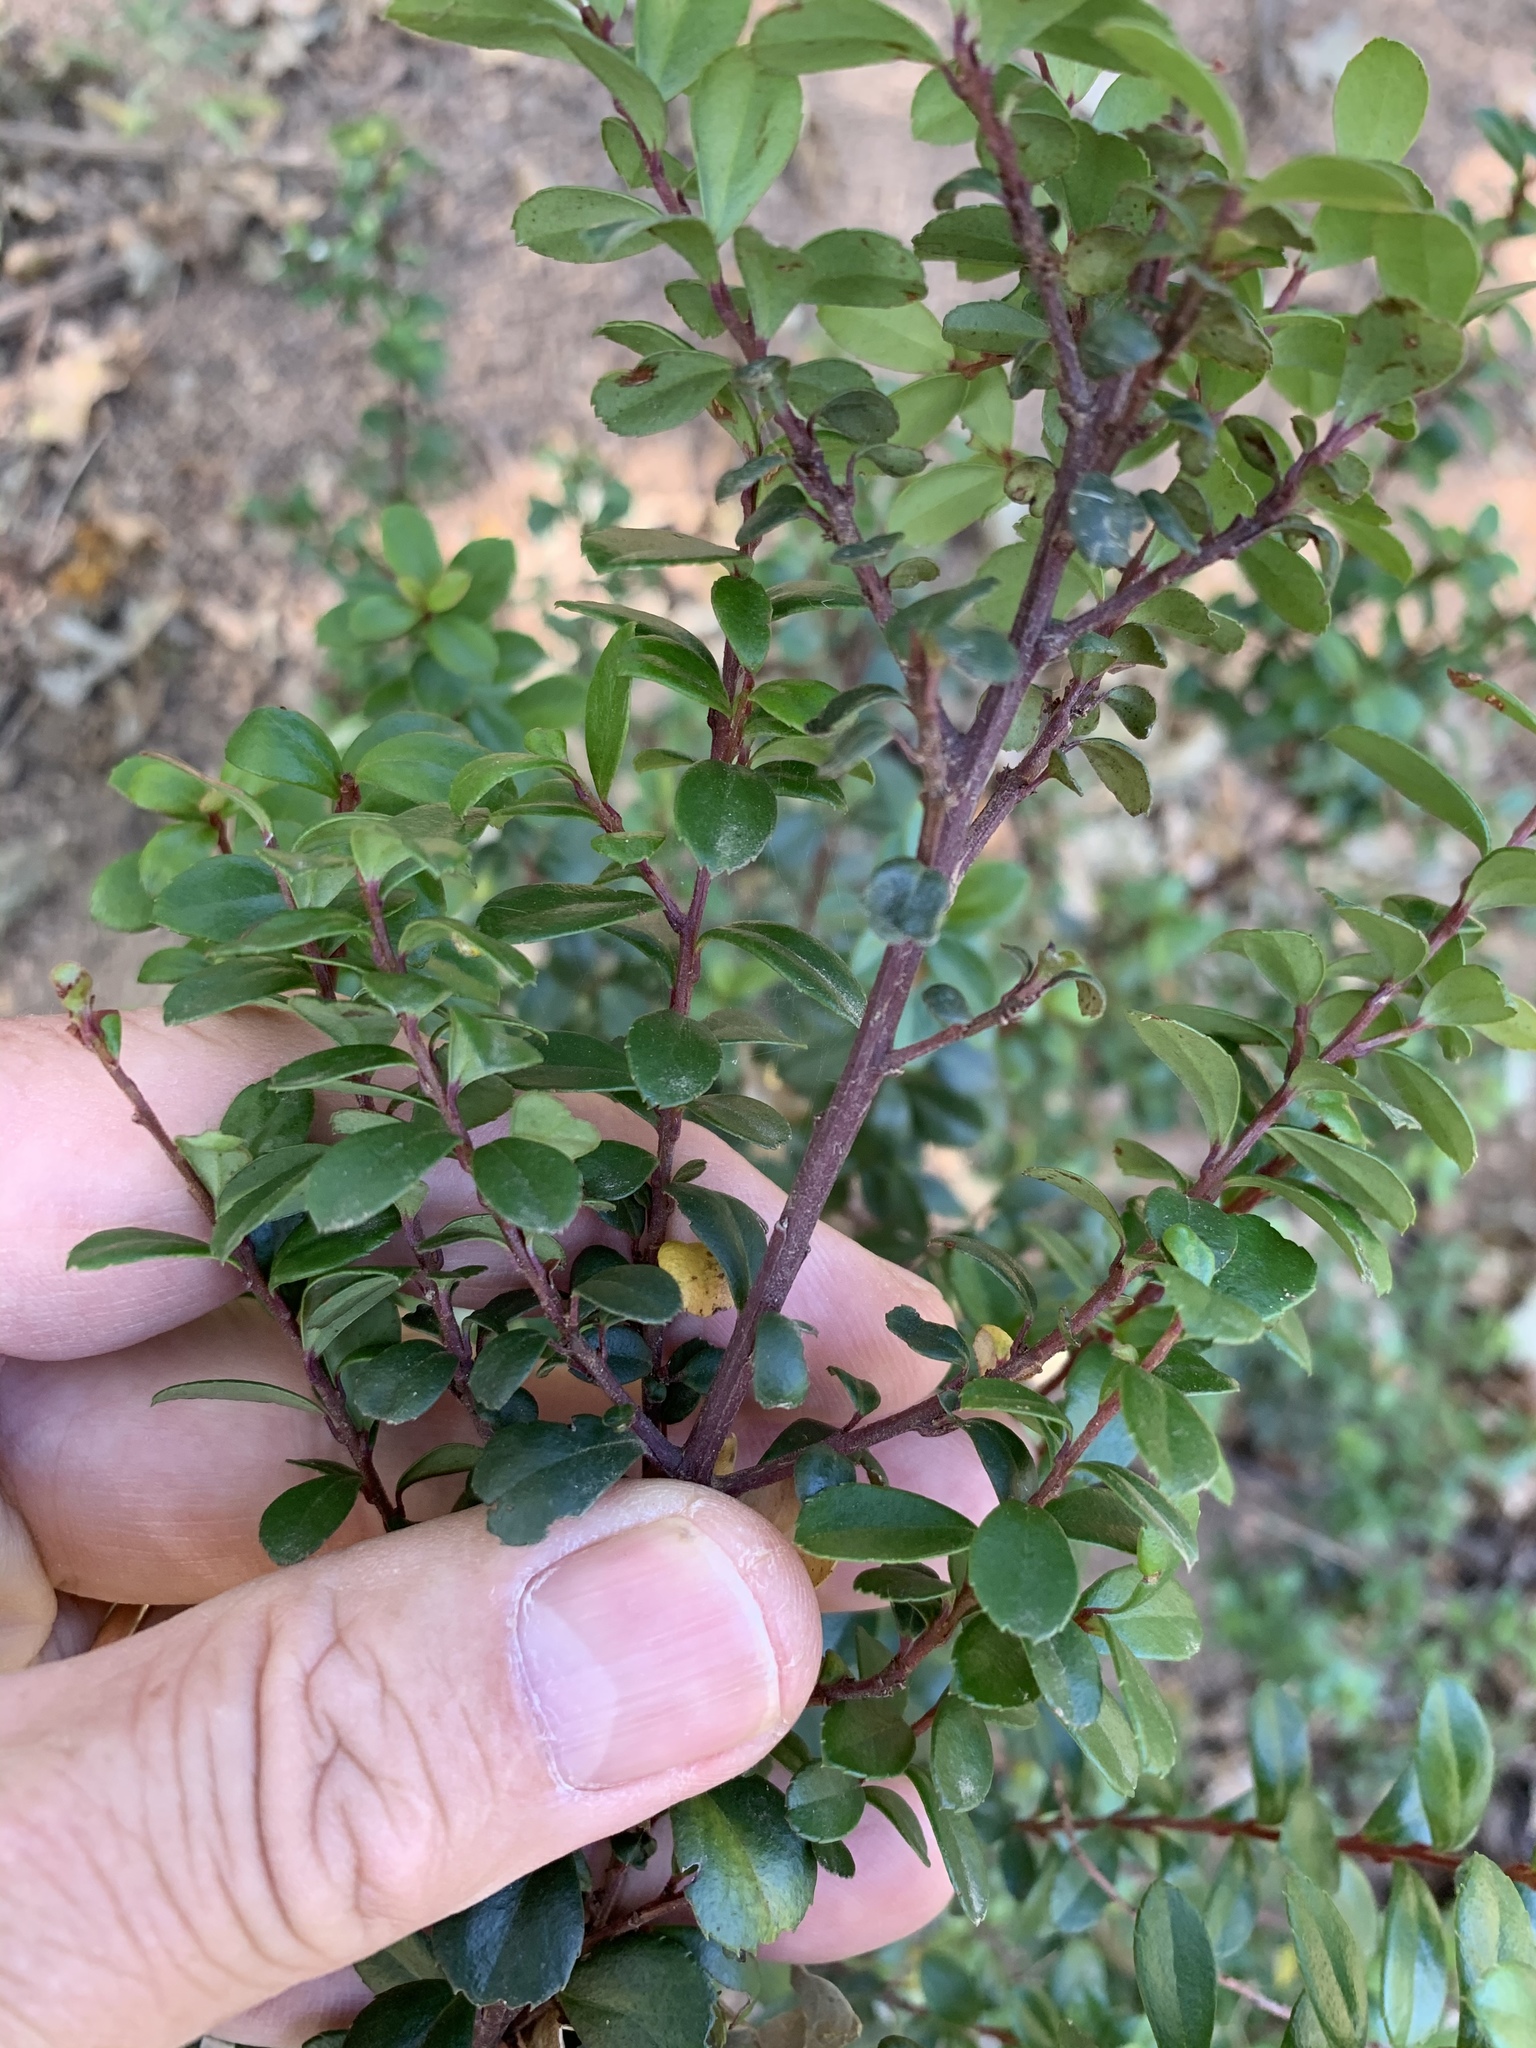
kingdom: Plantae
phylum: Tracheophyta
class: Magnoliopsida
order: Ericales
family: Primulaceae
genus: Myrsine
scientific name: Myrsine africana
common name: African-boxwood
